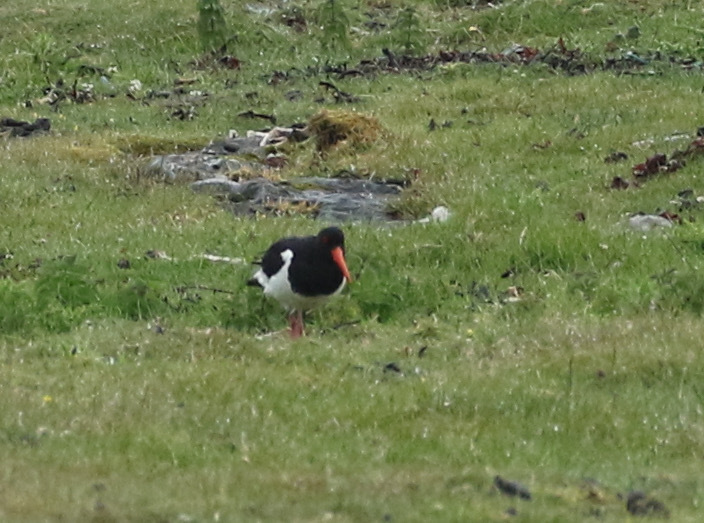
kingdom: Animalia
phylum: Chordata
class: Aves
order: Charadriiformes
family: Haematopodidae
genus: Haematopus
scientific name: Haematopus ostralegus
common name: Eurasian oystercatcher
